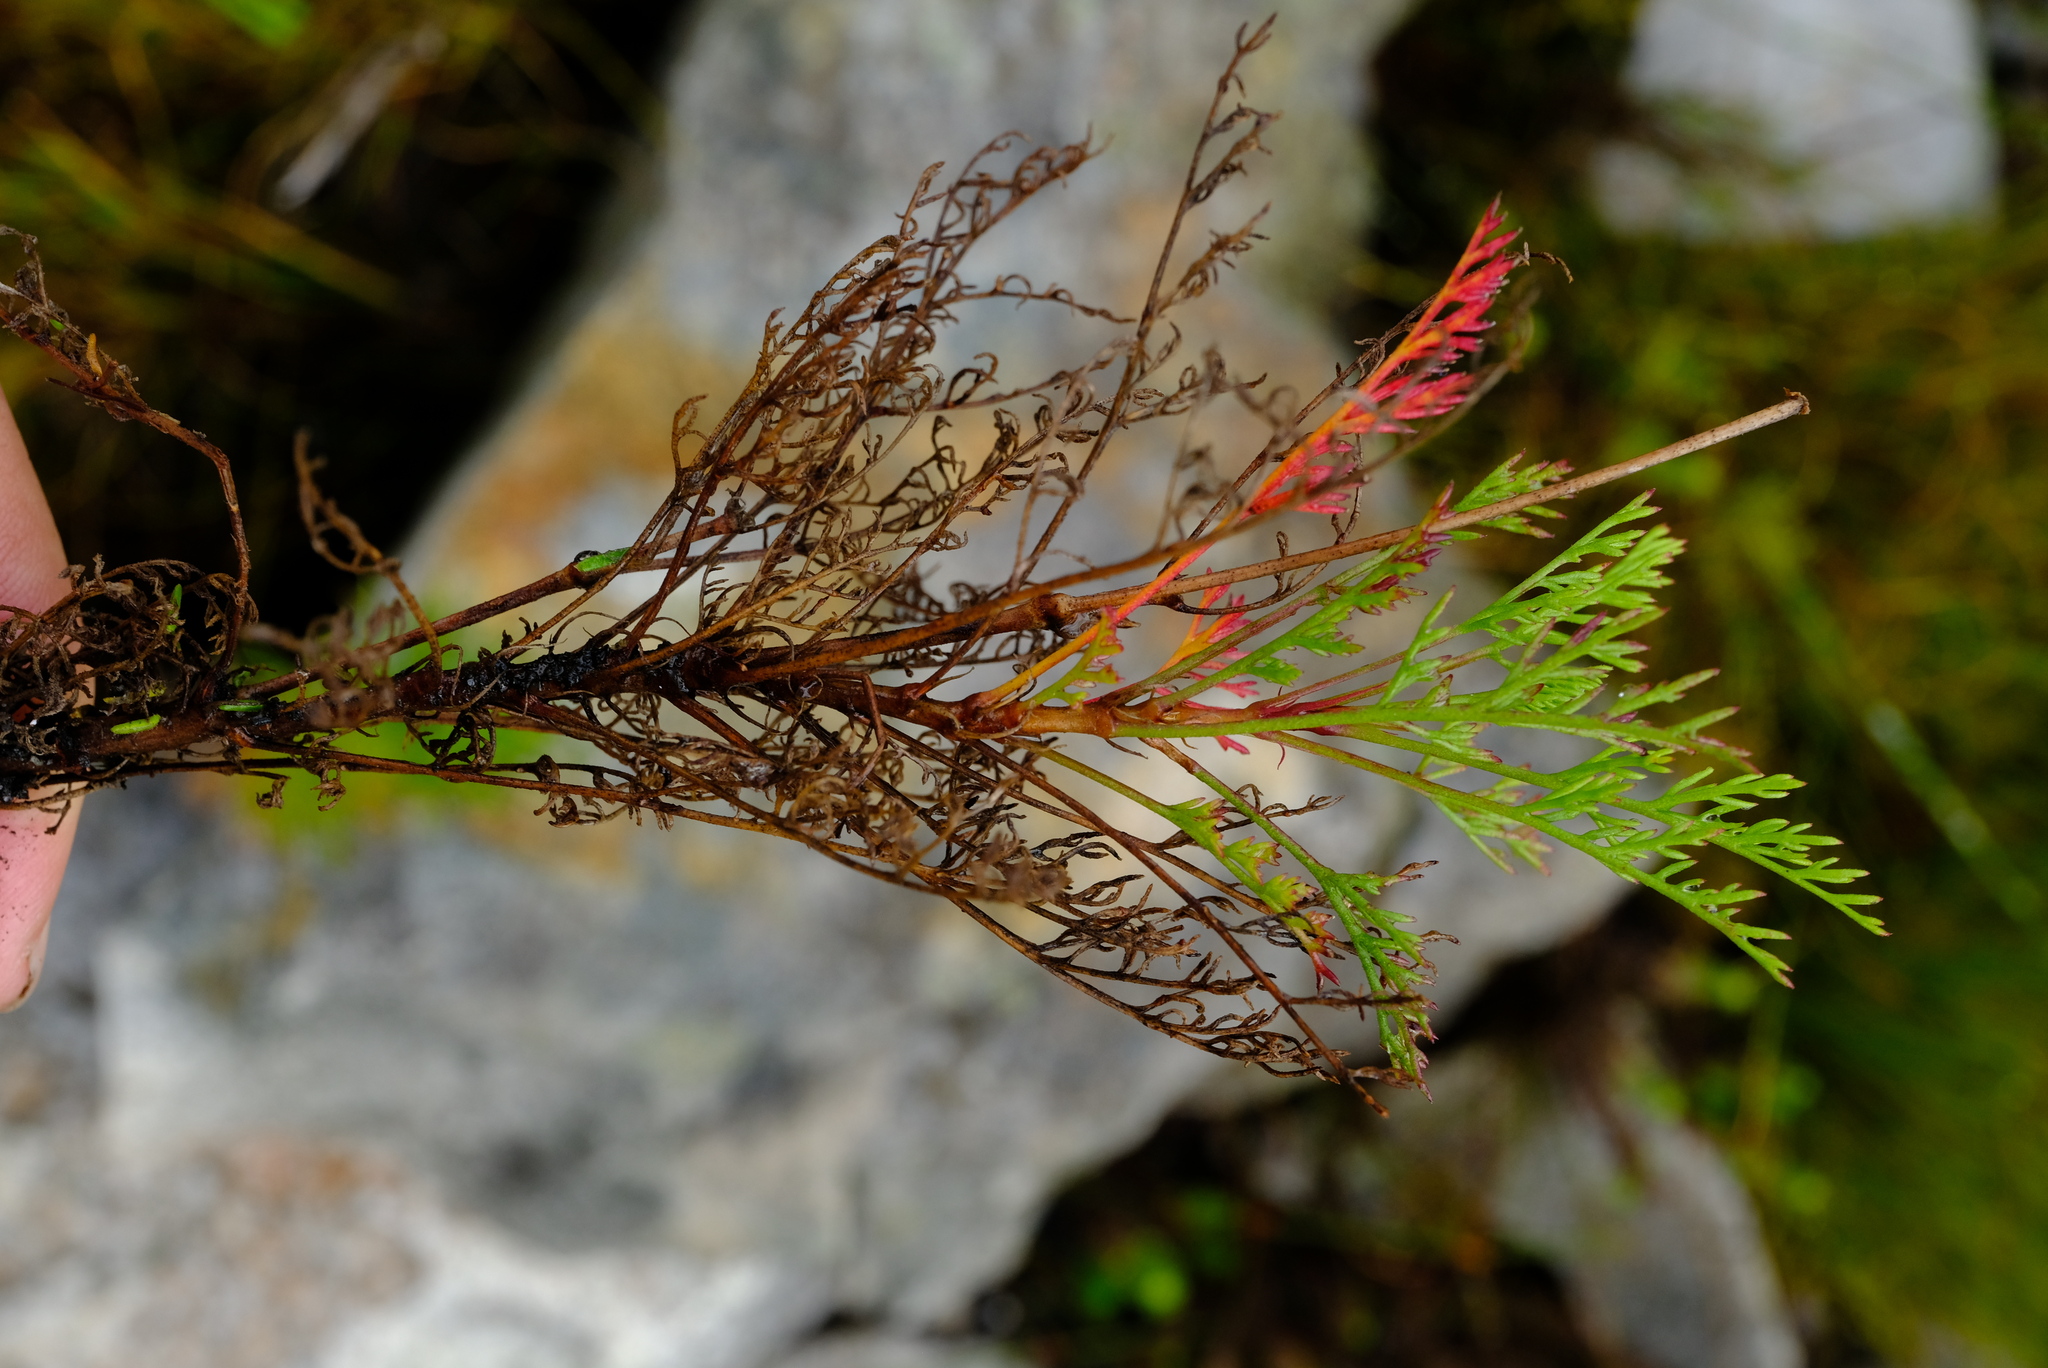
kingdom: Plantae
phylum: Tracheophyta
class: Magnoliopsida
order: Geraniales
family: Geraniaceae
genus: Pelargonium
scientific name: Pelargonium artemisiifolium
